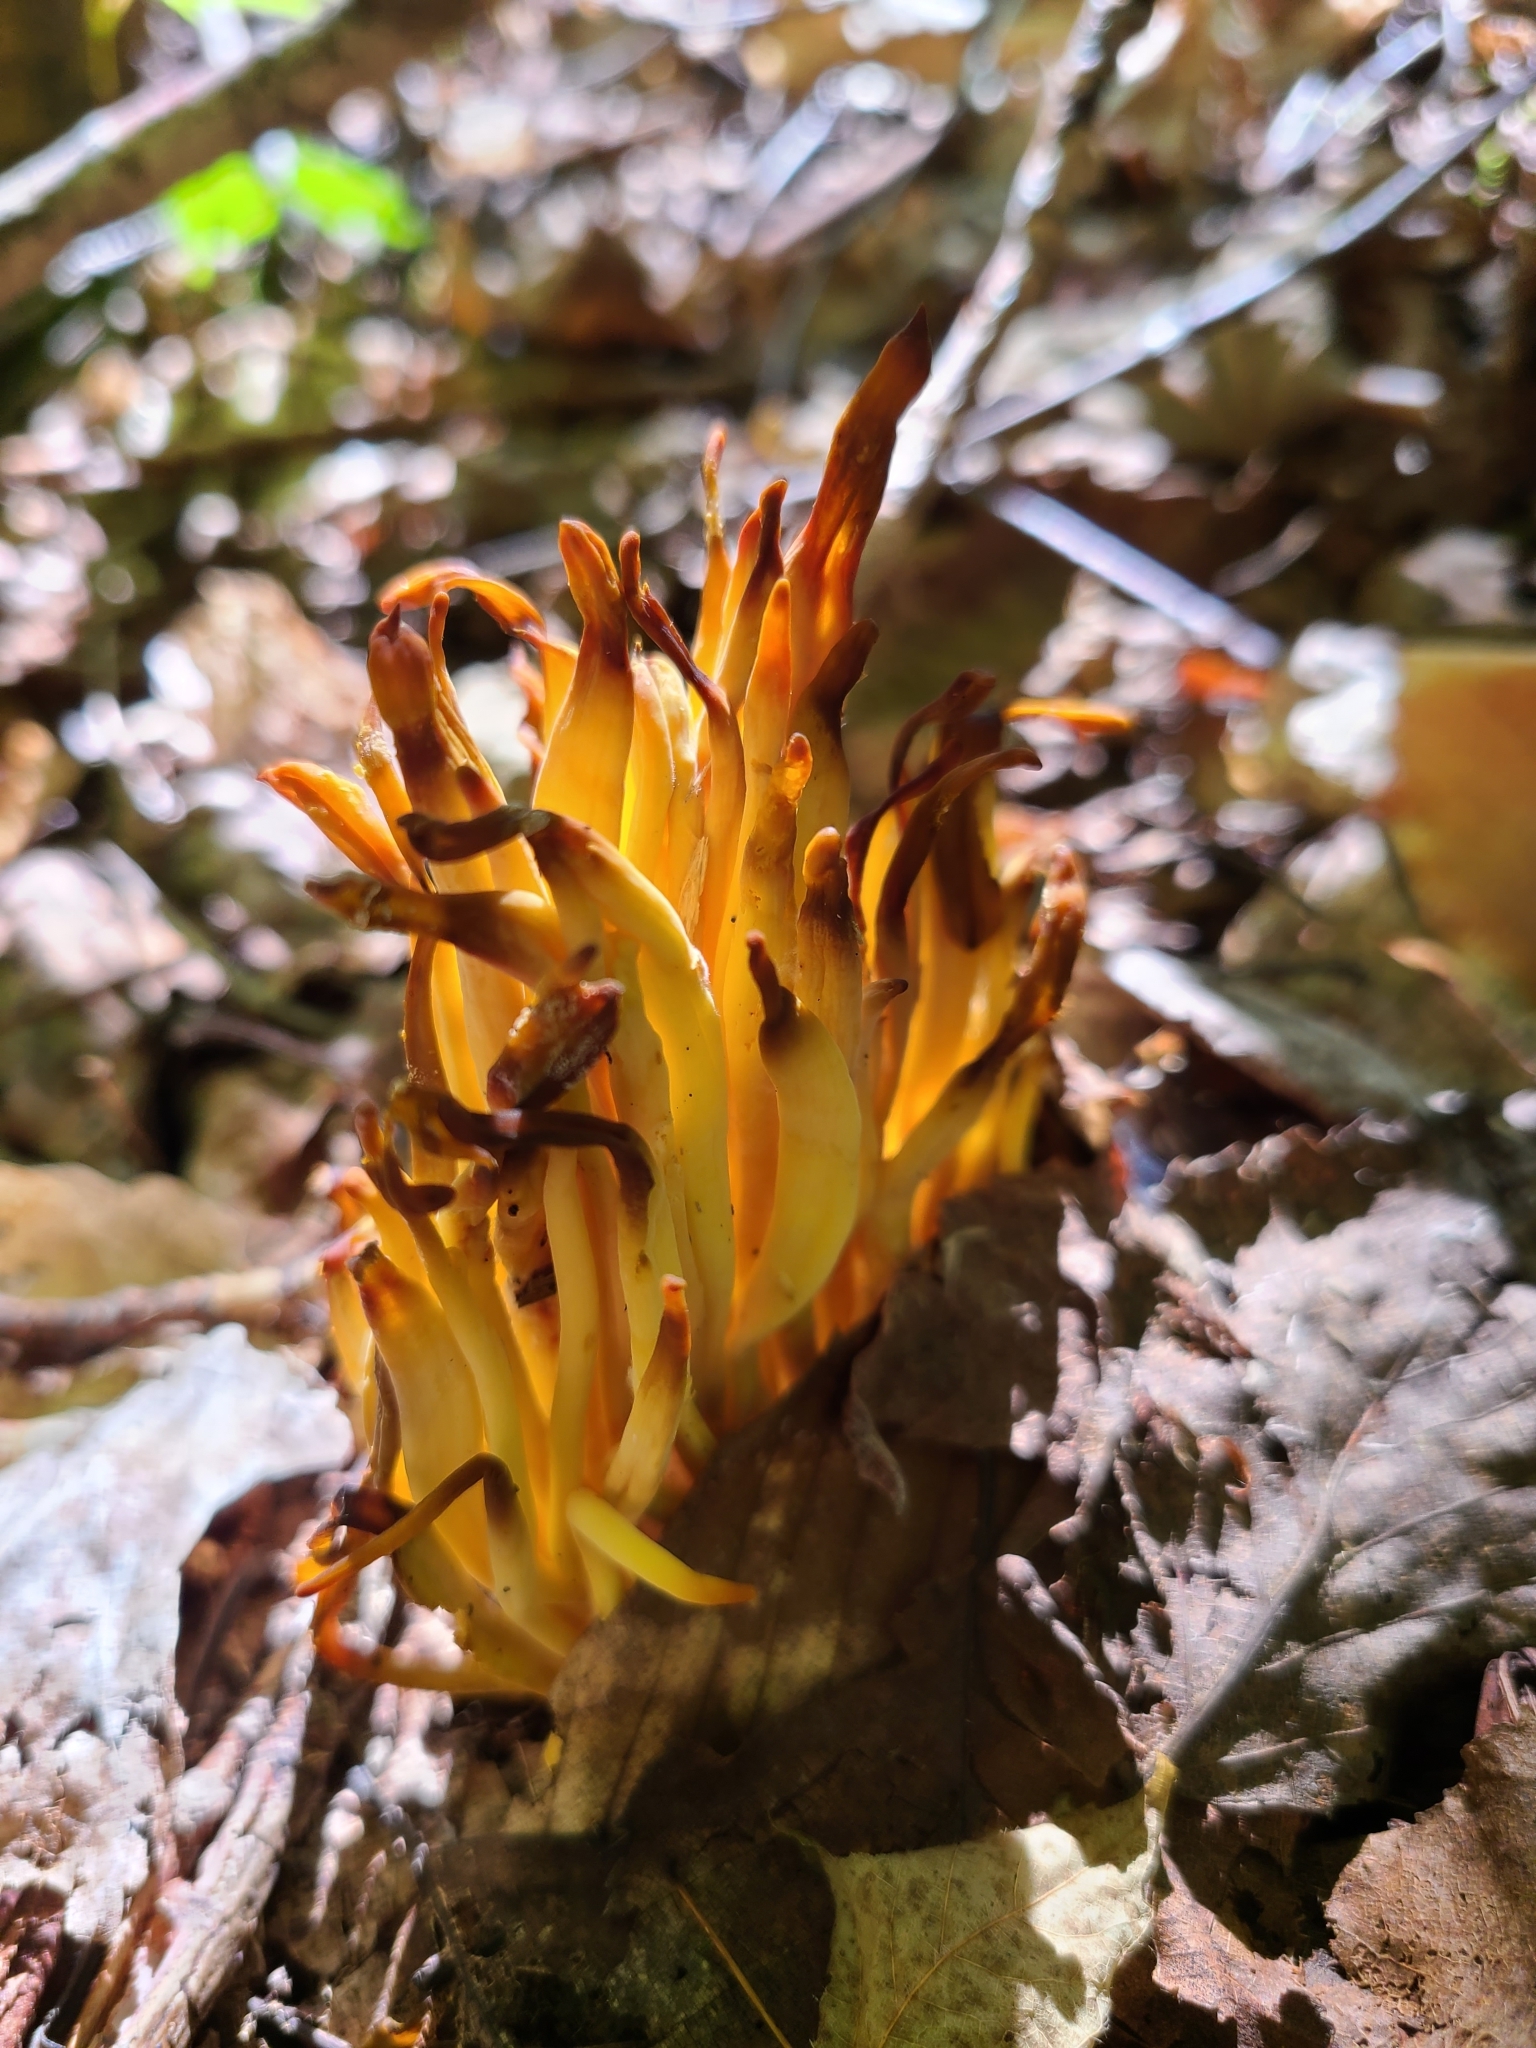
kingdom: Fungi
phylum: Basidiomycota
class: Agaricomycetes
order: Agaricales
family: Clavariaceae
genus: Clavulinopsis
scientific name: Clavulinopsis fusiformis
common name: Golden spindles
